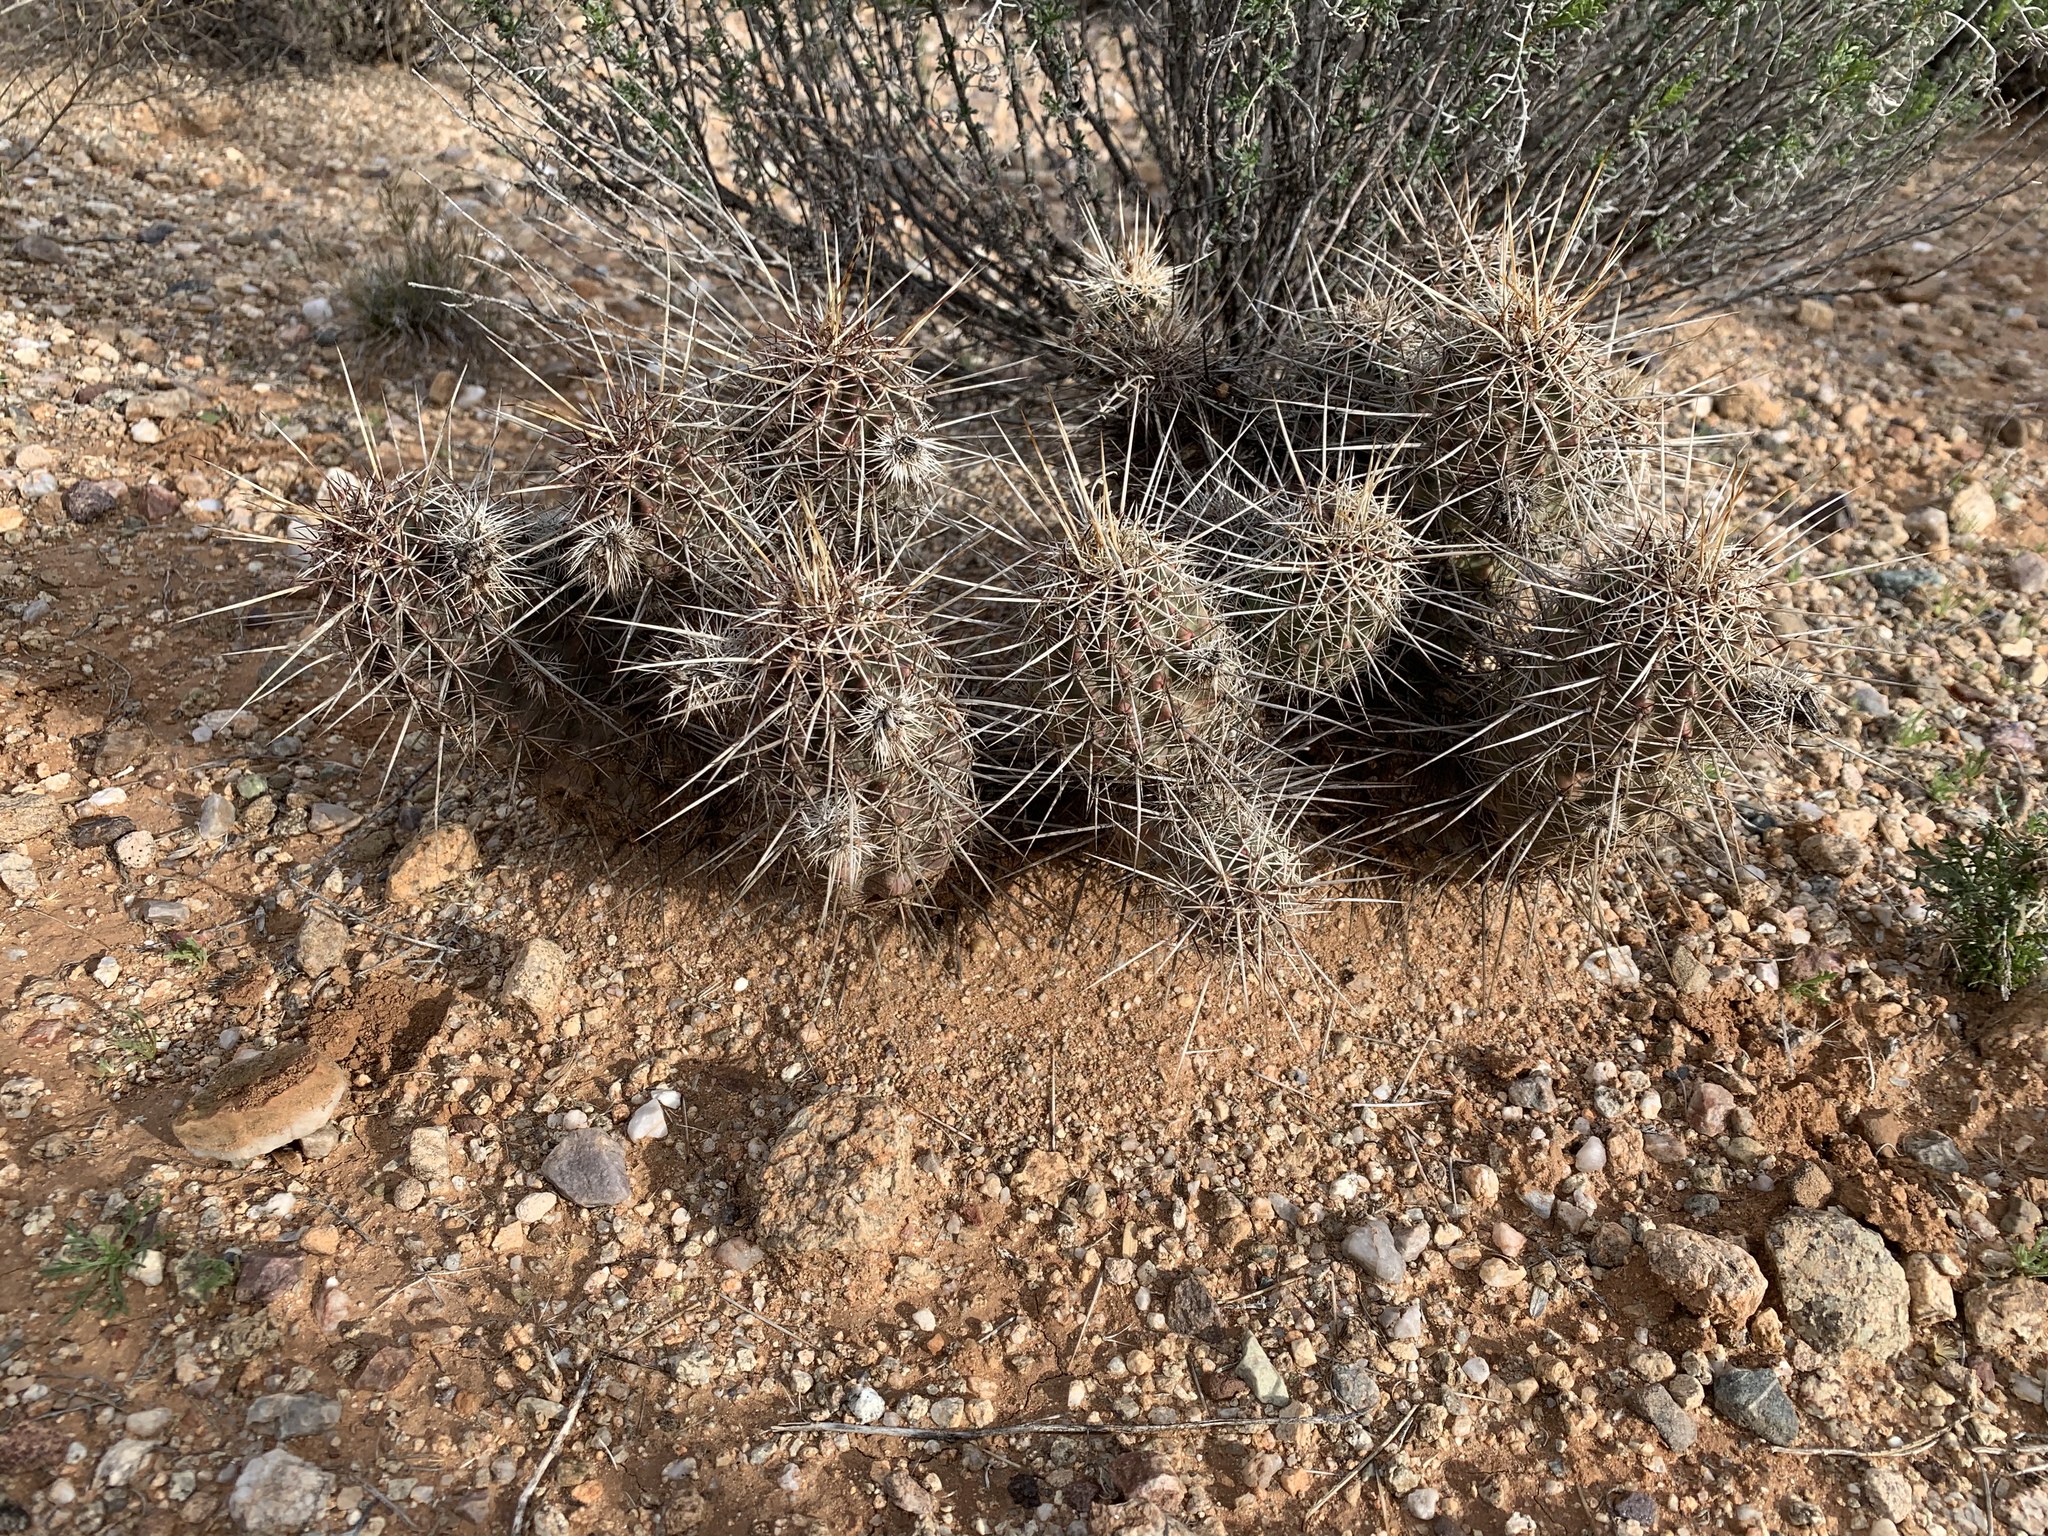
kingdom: Plantae
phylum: Tracheophyta
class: Magnoliopsida
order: Caryophyllales
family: Cactaceae
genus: Echinocereus
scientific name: Echinocereus fasciculatus
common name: Bundle hedgehog
